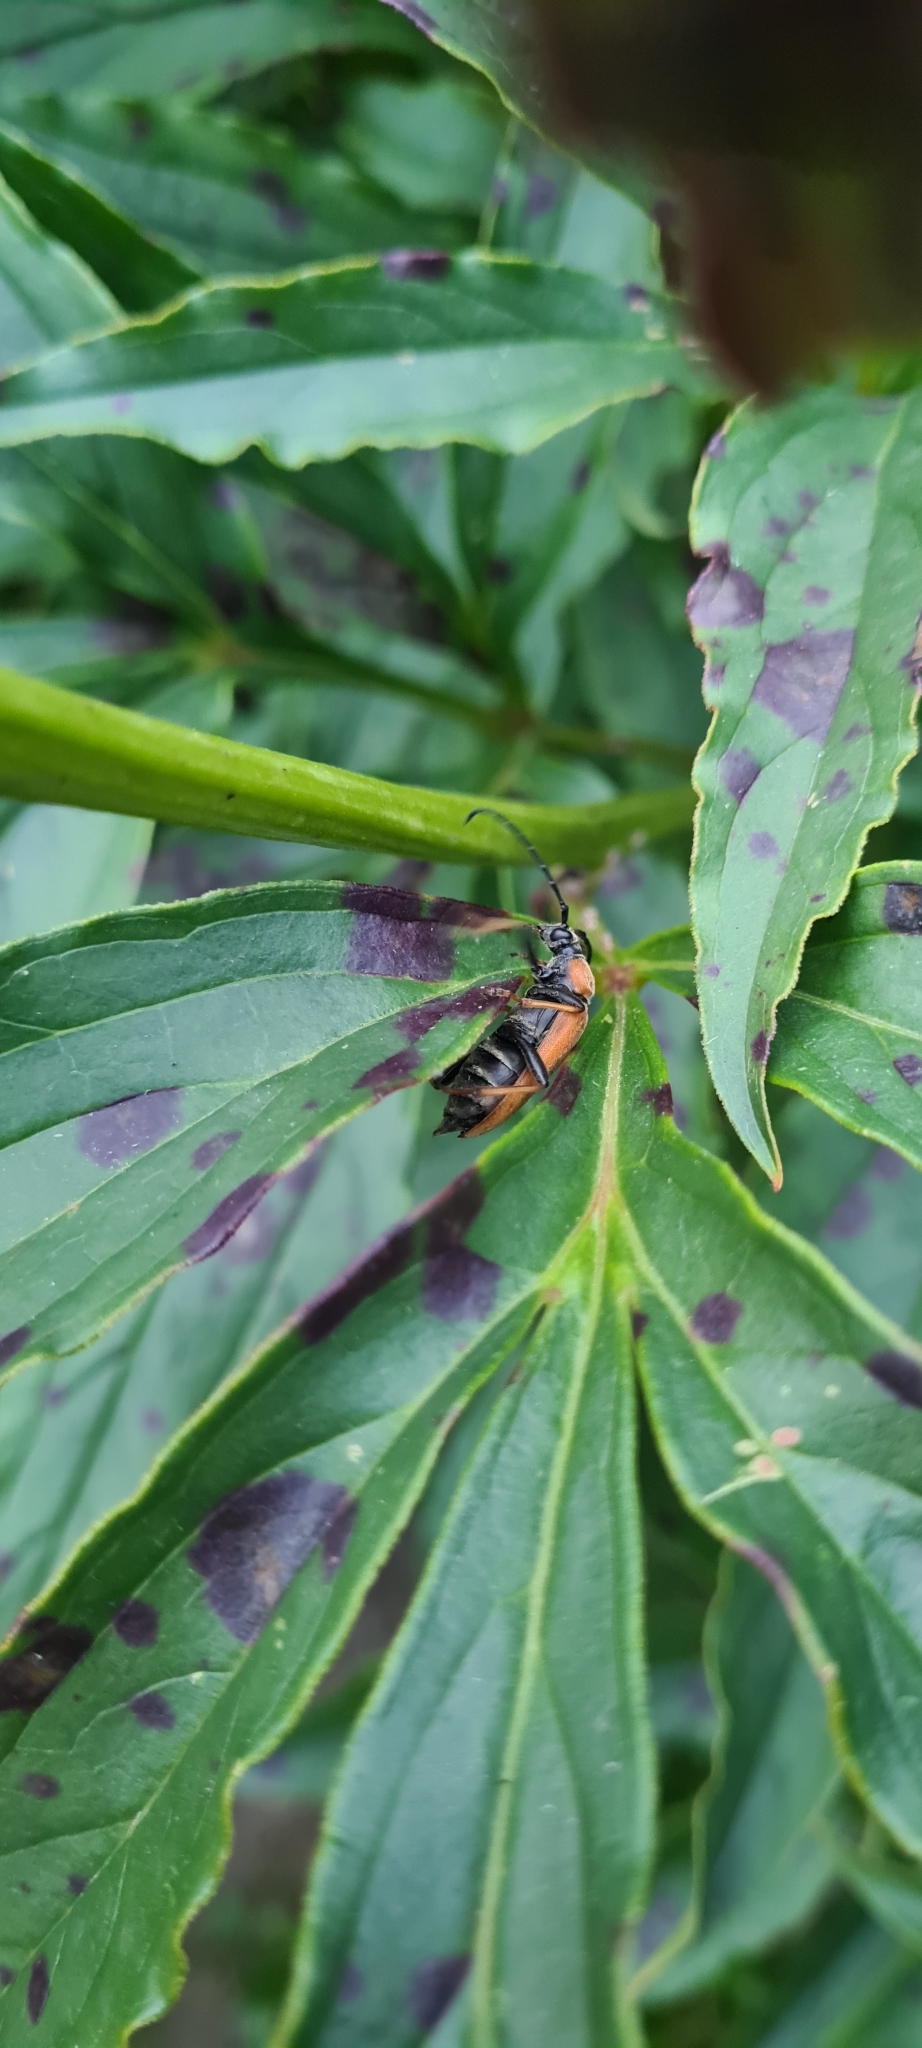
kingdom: Animalia
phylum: Arthropoda
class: Insecta
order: Coleoptera
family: Cerambycidae
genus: Stictoleptura
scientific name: Stictoleptura rubra
